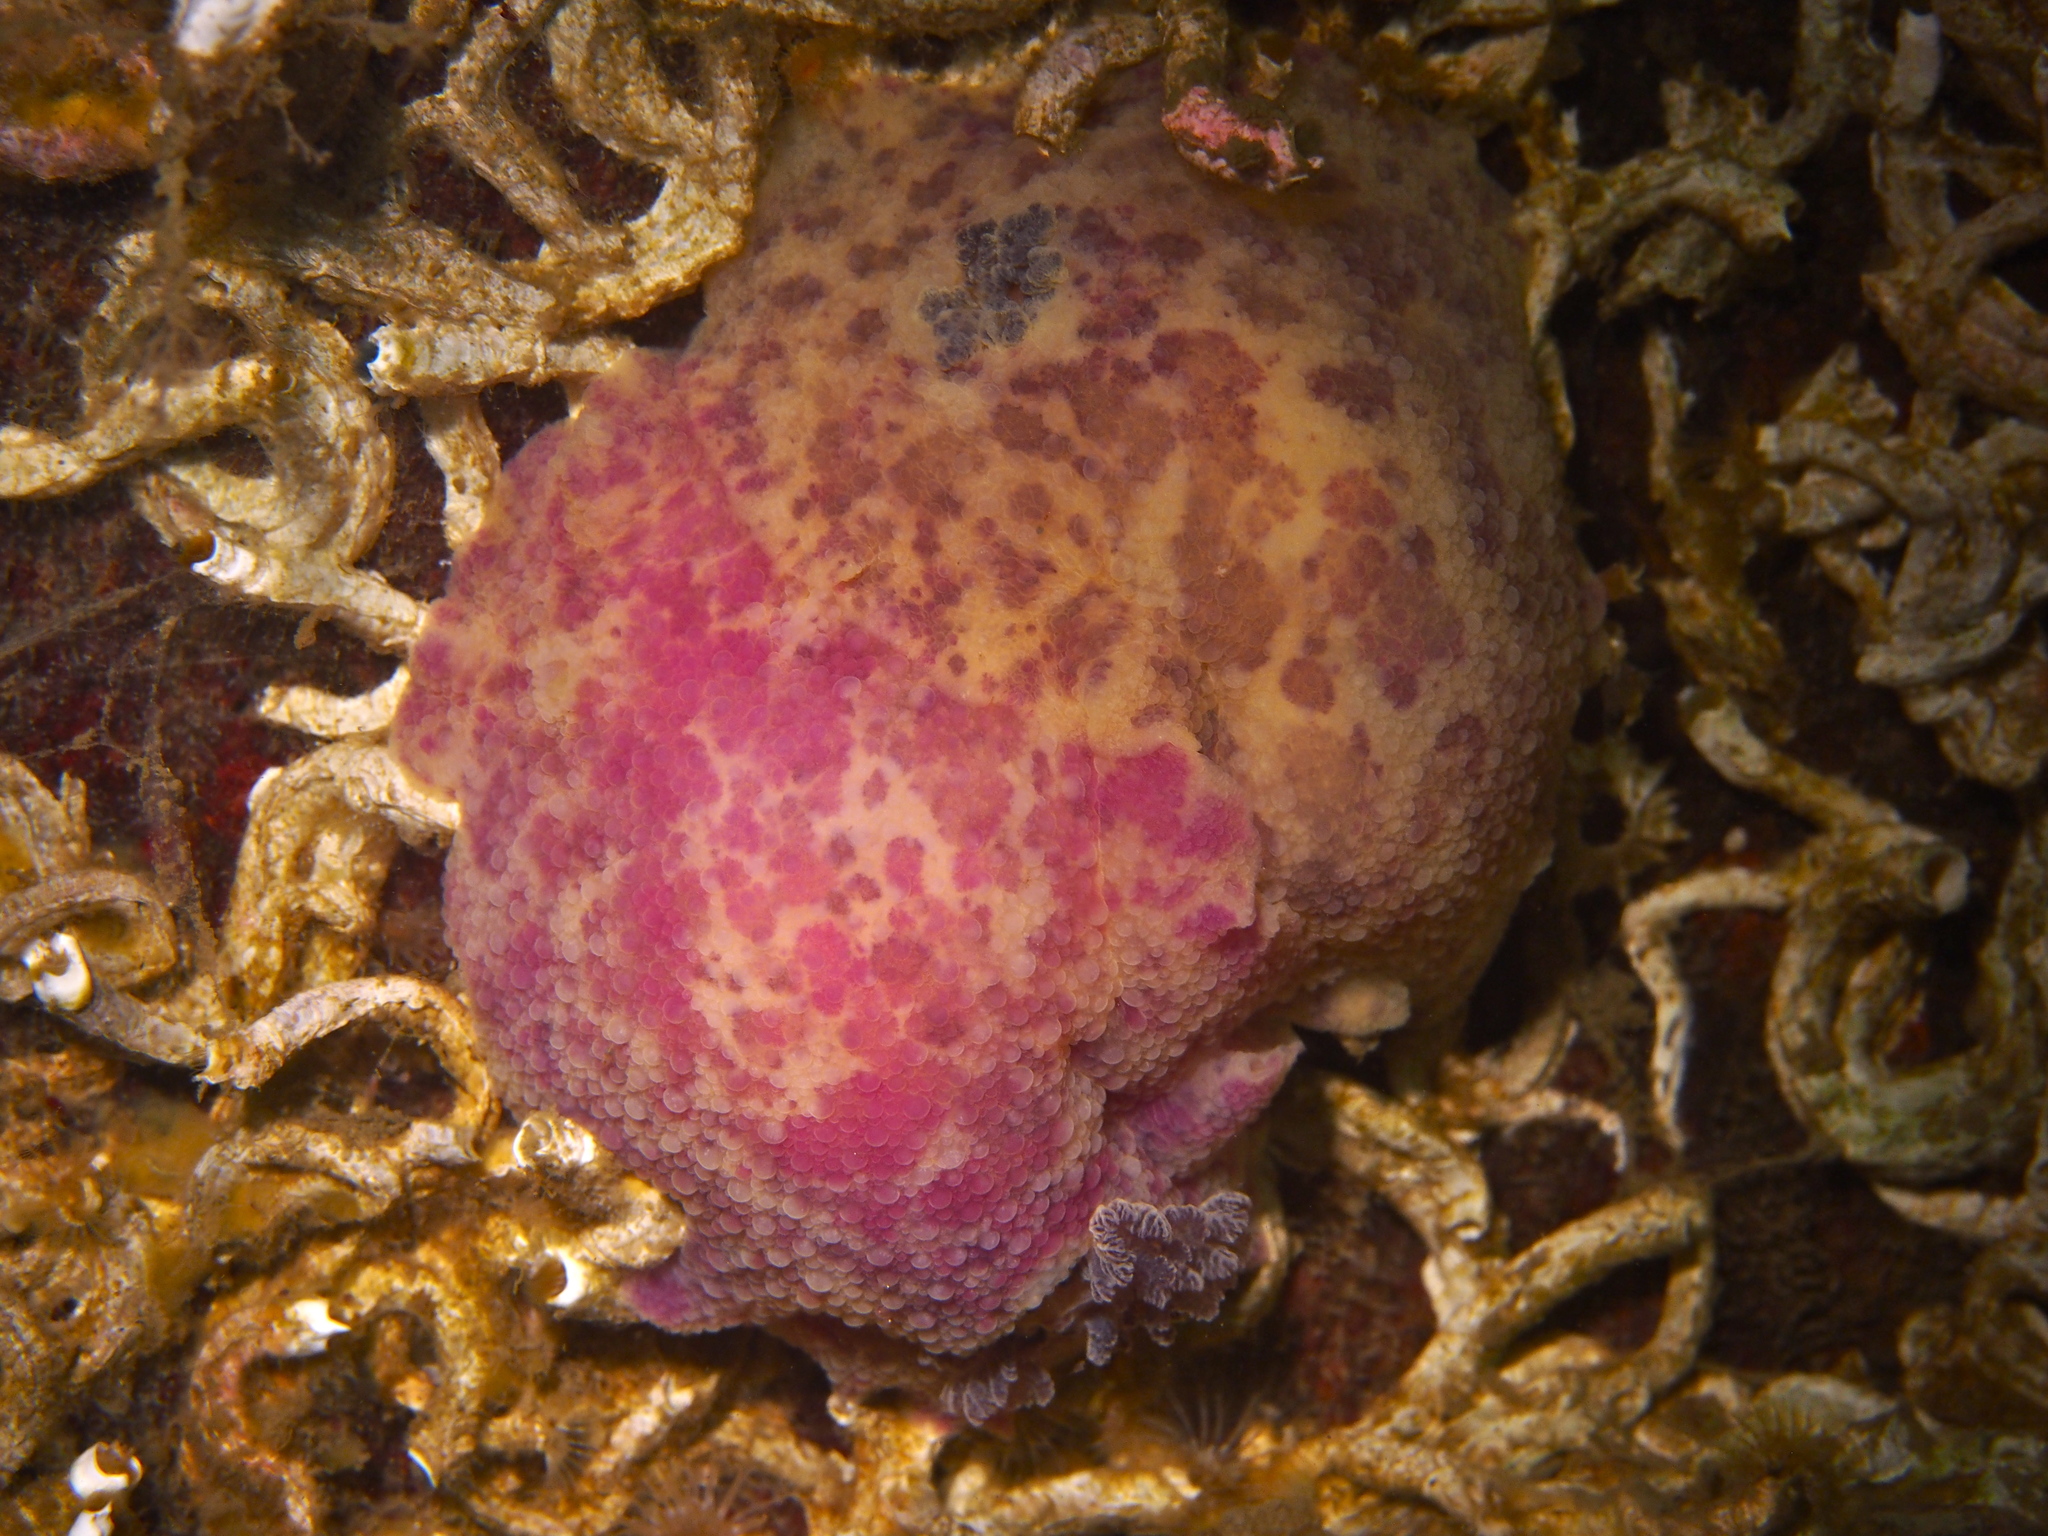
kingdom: Animalia
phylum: Mollusca
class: Gastropoda
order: Nudibranchia
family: Dorididae
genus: Doris
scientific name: Doris pseudoargus
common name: Sea lemon
